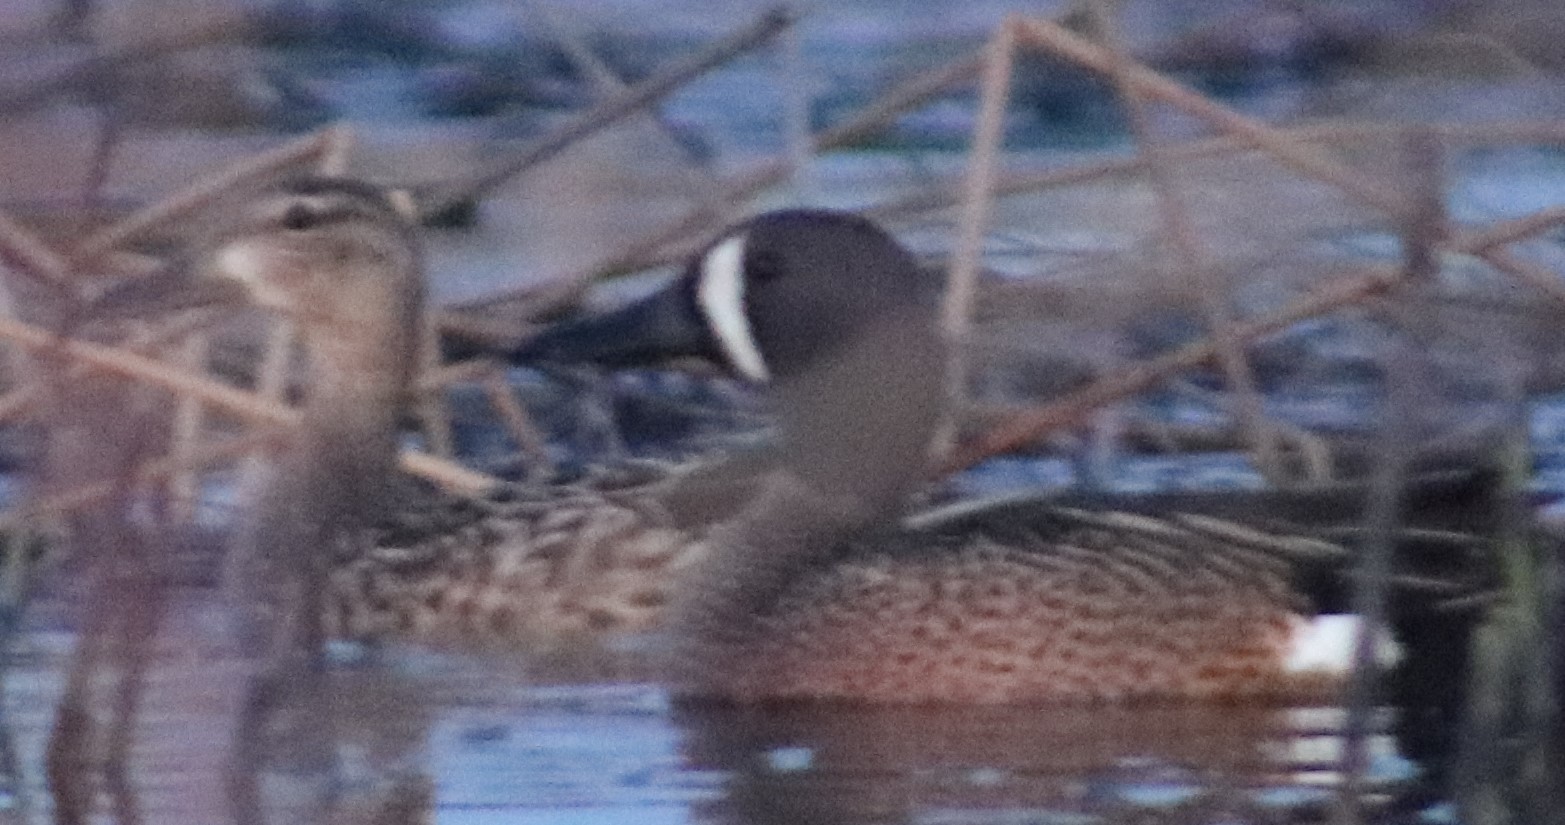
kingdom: Animalia
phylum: Chordata
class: Aves
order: Anseriformes
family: Anatidae
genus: Spatula
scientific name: Spatula discors
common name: Blue-winged teal
